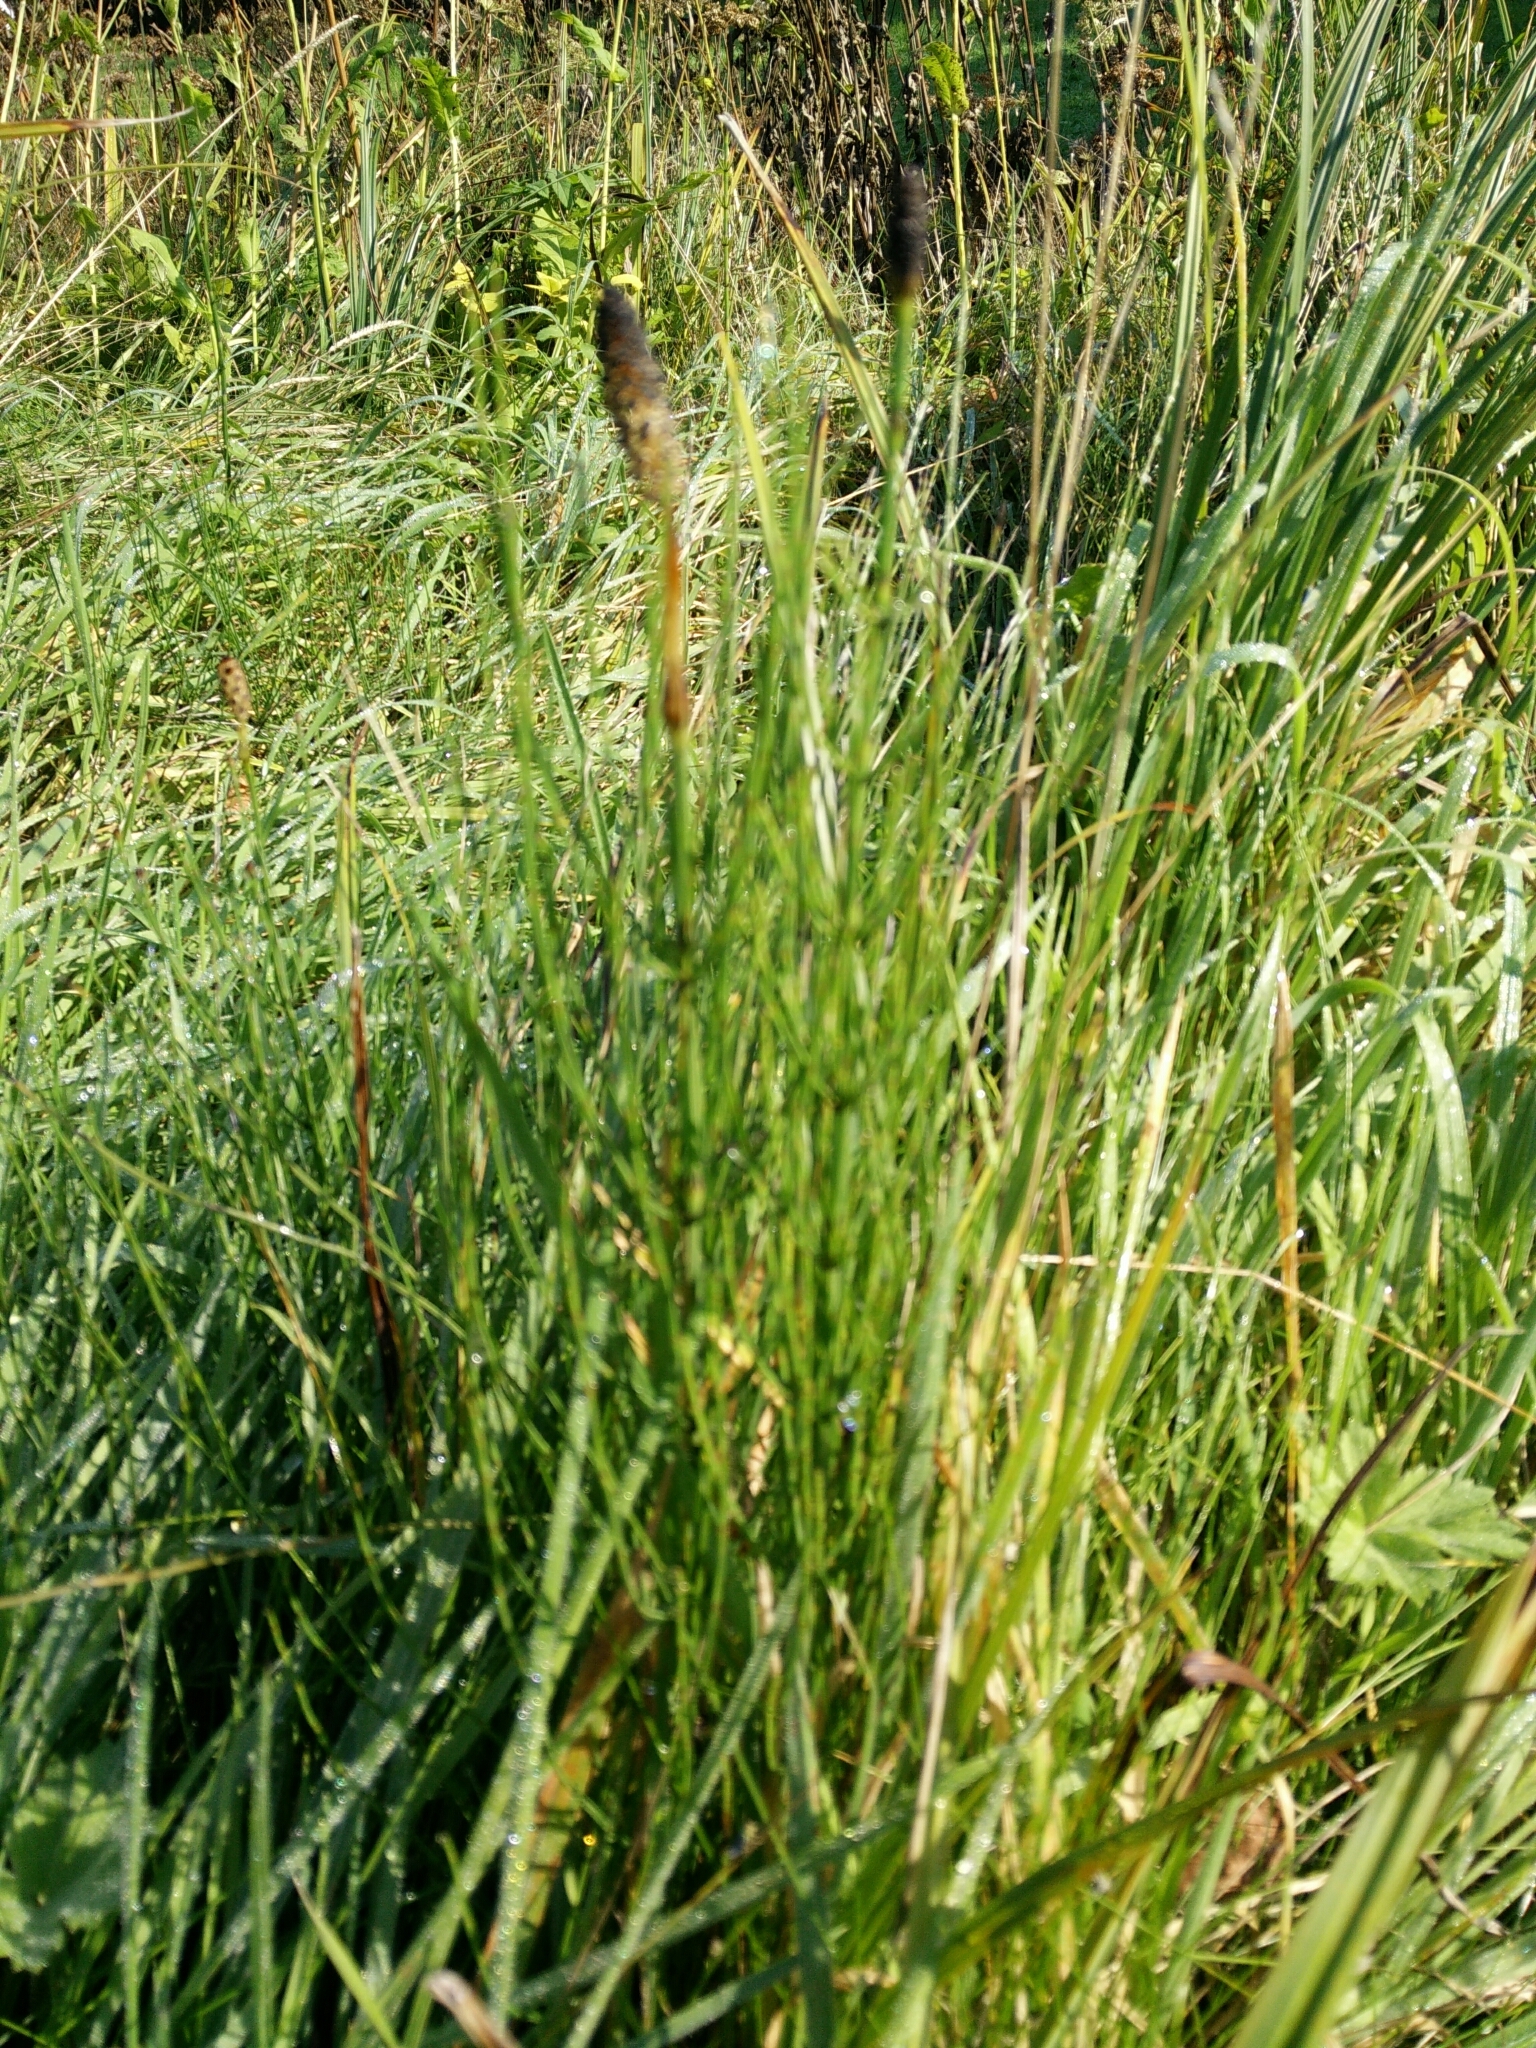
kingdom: Plantae
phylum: Tracheophyta
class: Polypodiopsida
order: Equisetales
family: Equisetaceae
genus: Equisetum
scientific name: Equisetum palustre
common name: Marsh horsetail
